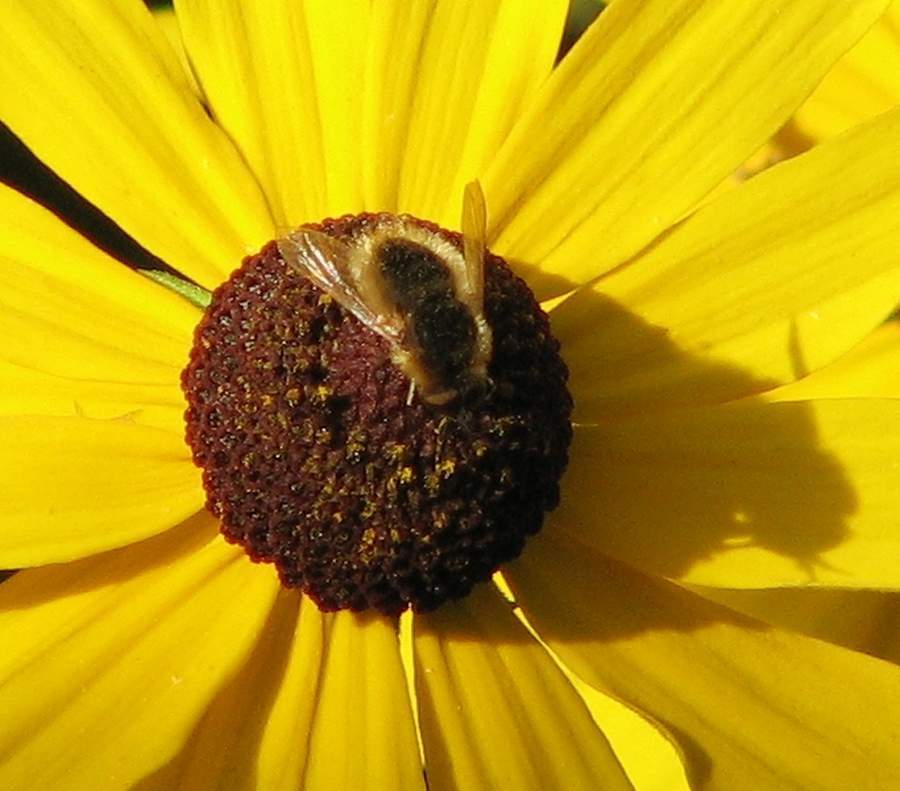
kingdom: Animalia
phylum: Arthropoda
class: Insecta
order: Diptera
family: Bombyliidae
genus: Sparnopolius
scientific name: Sparnopolius confusus
